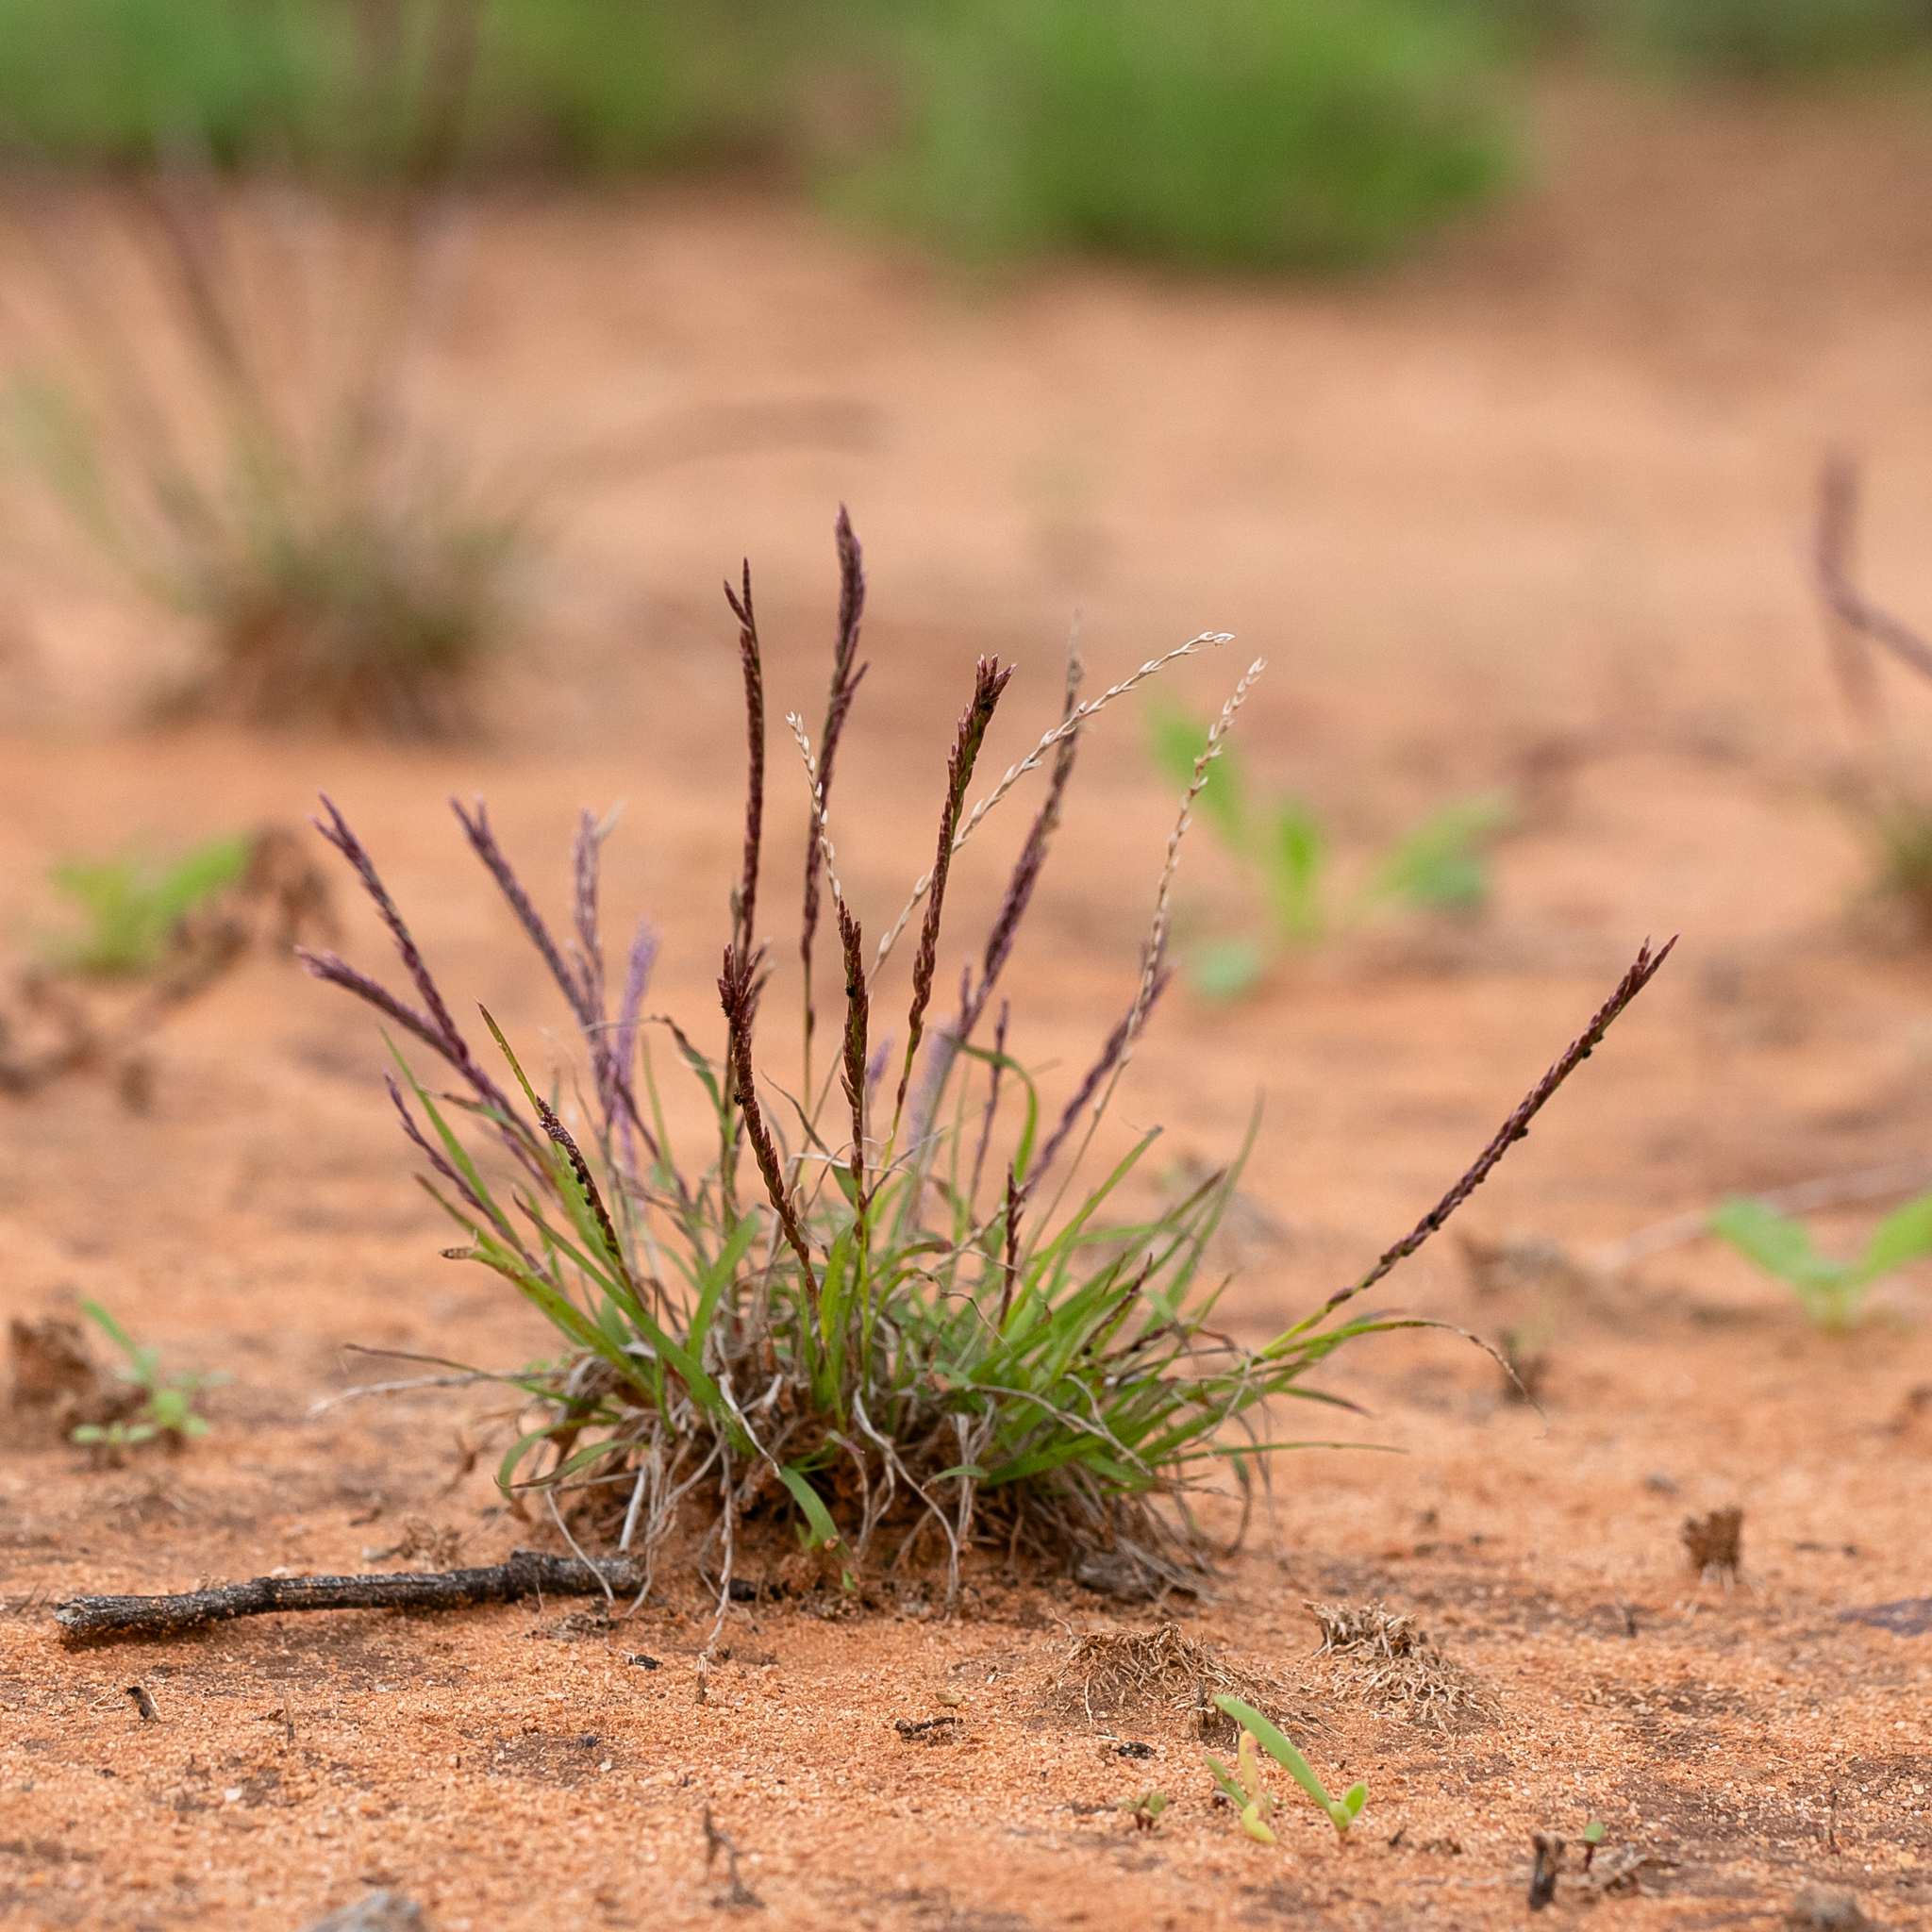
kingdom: Plantae
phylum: Tracheophyta
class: Liliopsida
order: Poales
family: Poaceae
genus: Tripogonella
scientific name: Tripogonella loliiformis
